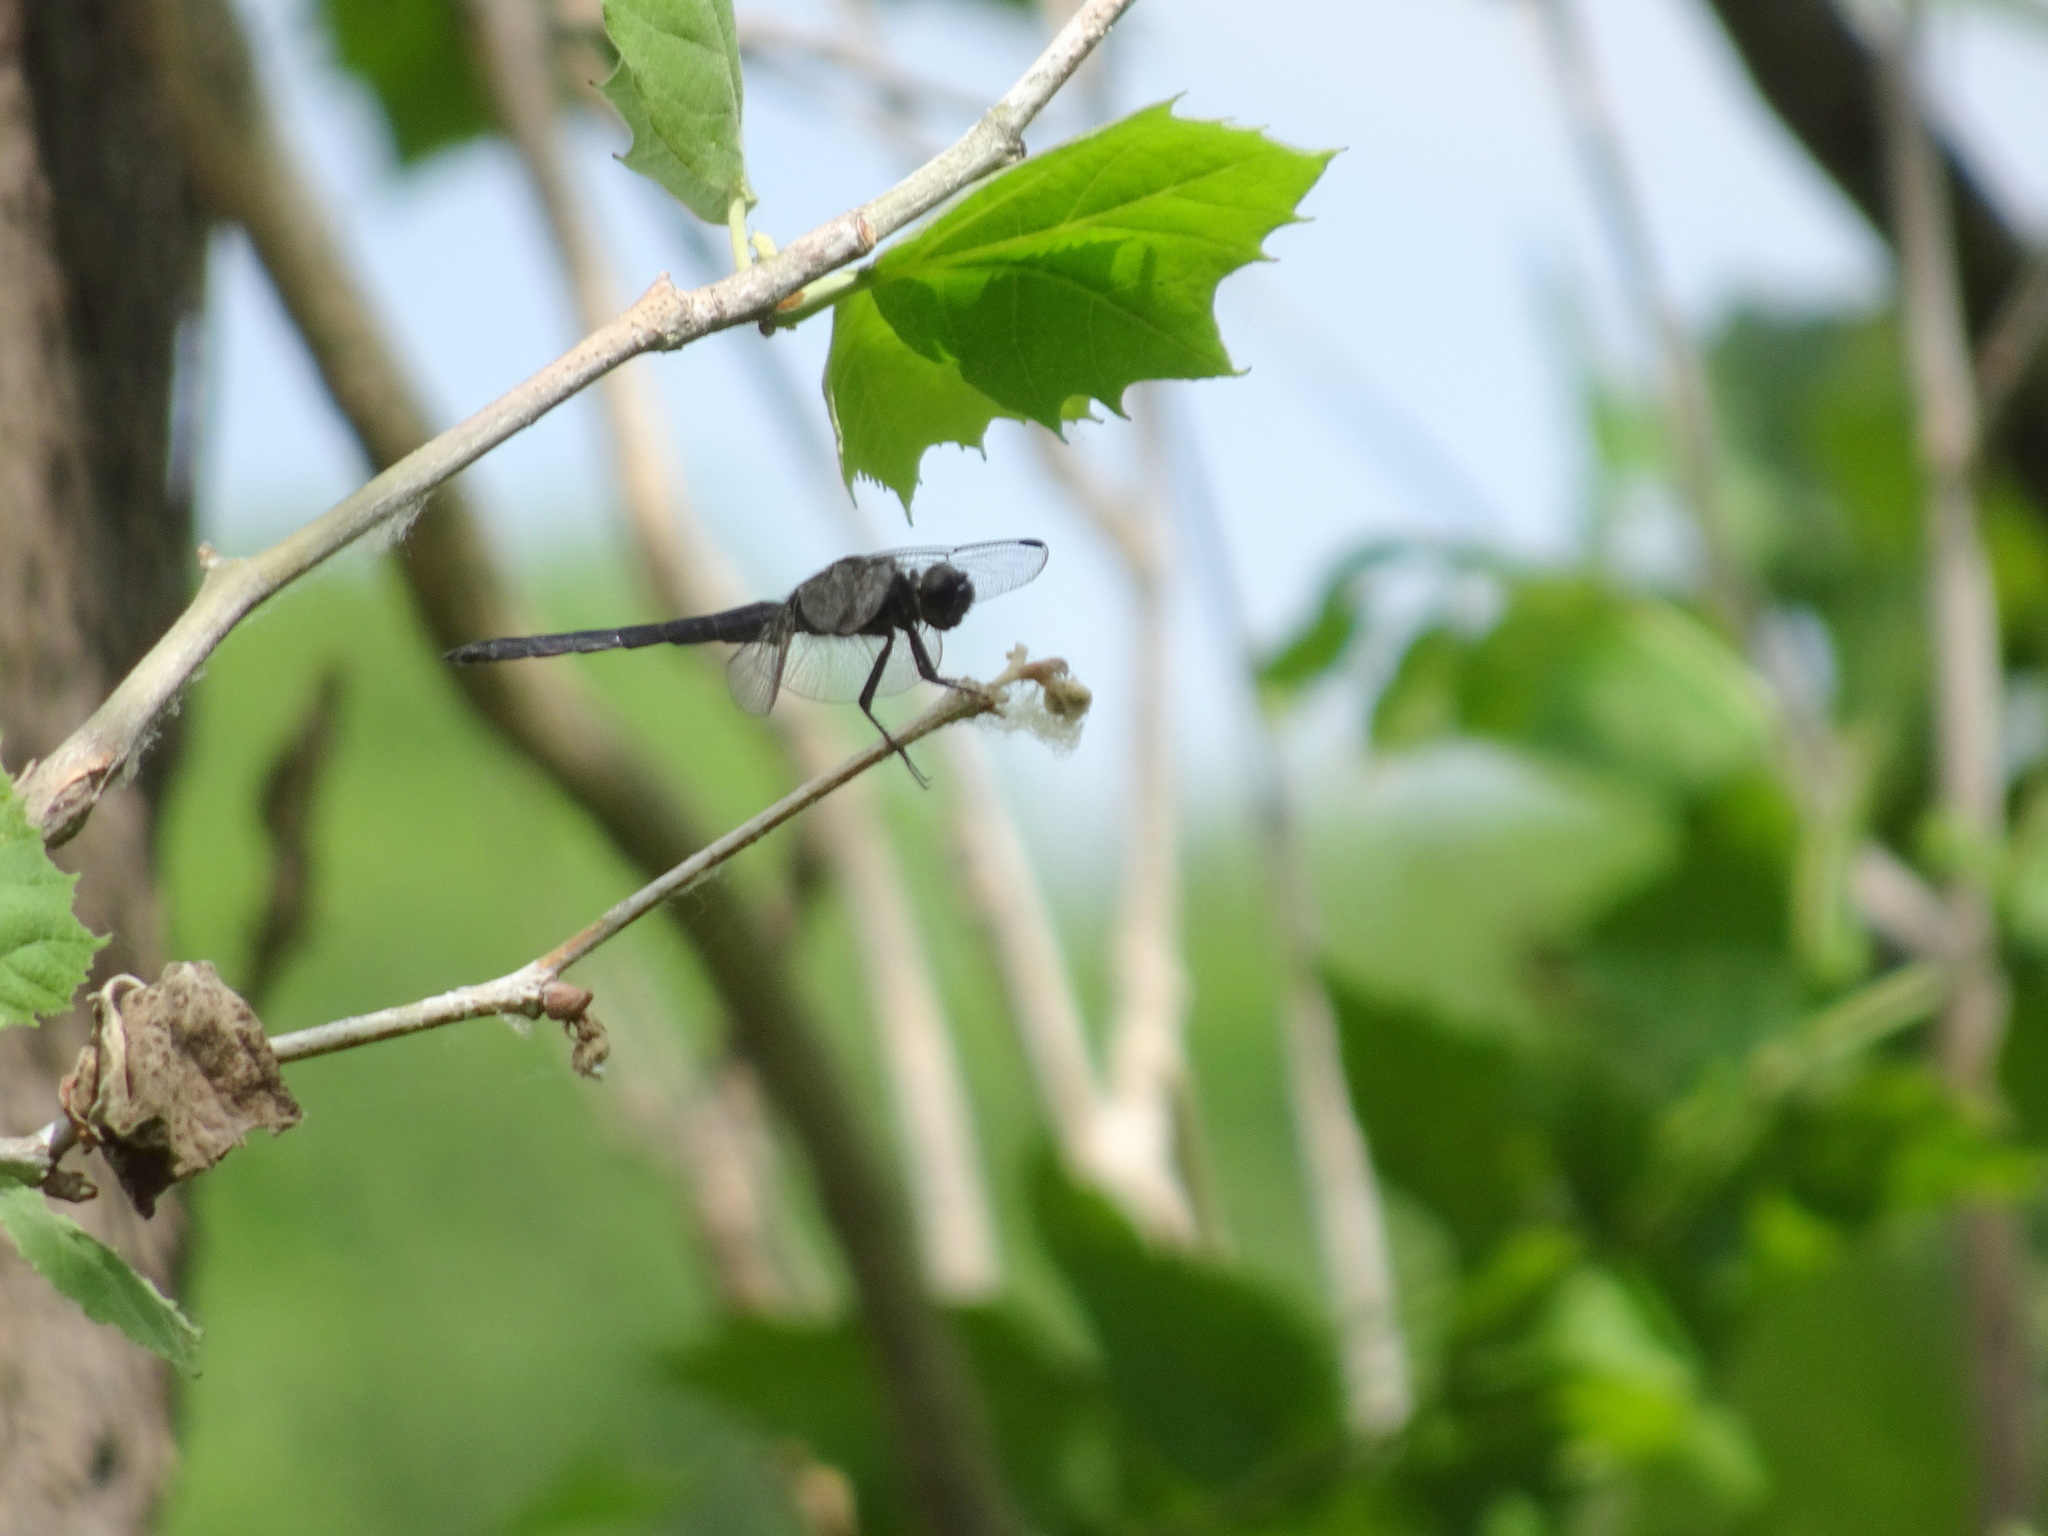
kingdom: Animalia
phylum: Arthropoda
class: Insecta
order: Odonata
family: Libellulidae
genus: Libellula
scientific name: Libellula incesta
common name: Slaty skimmer
